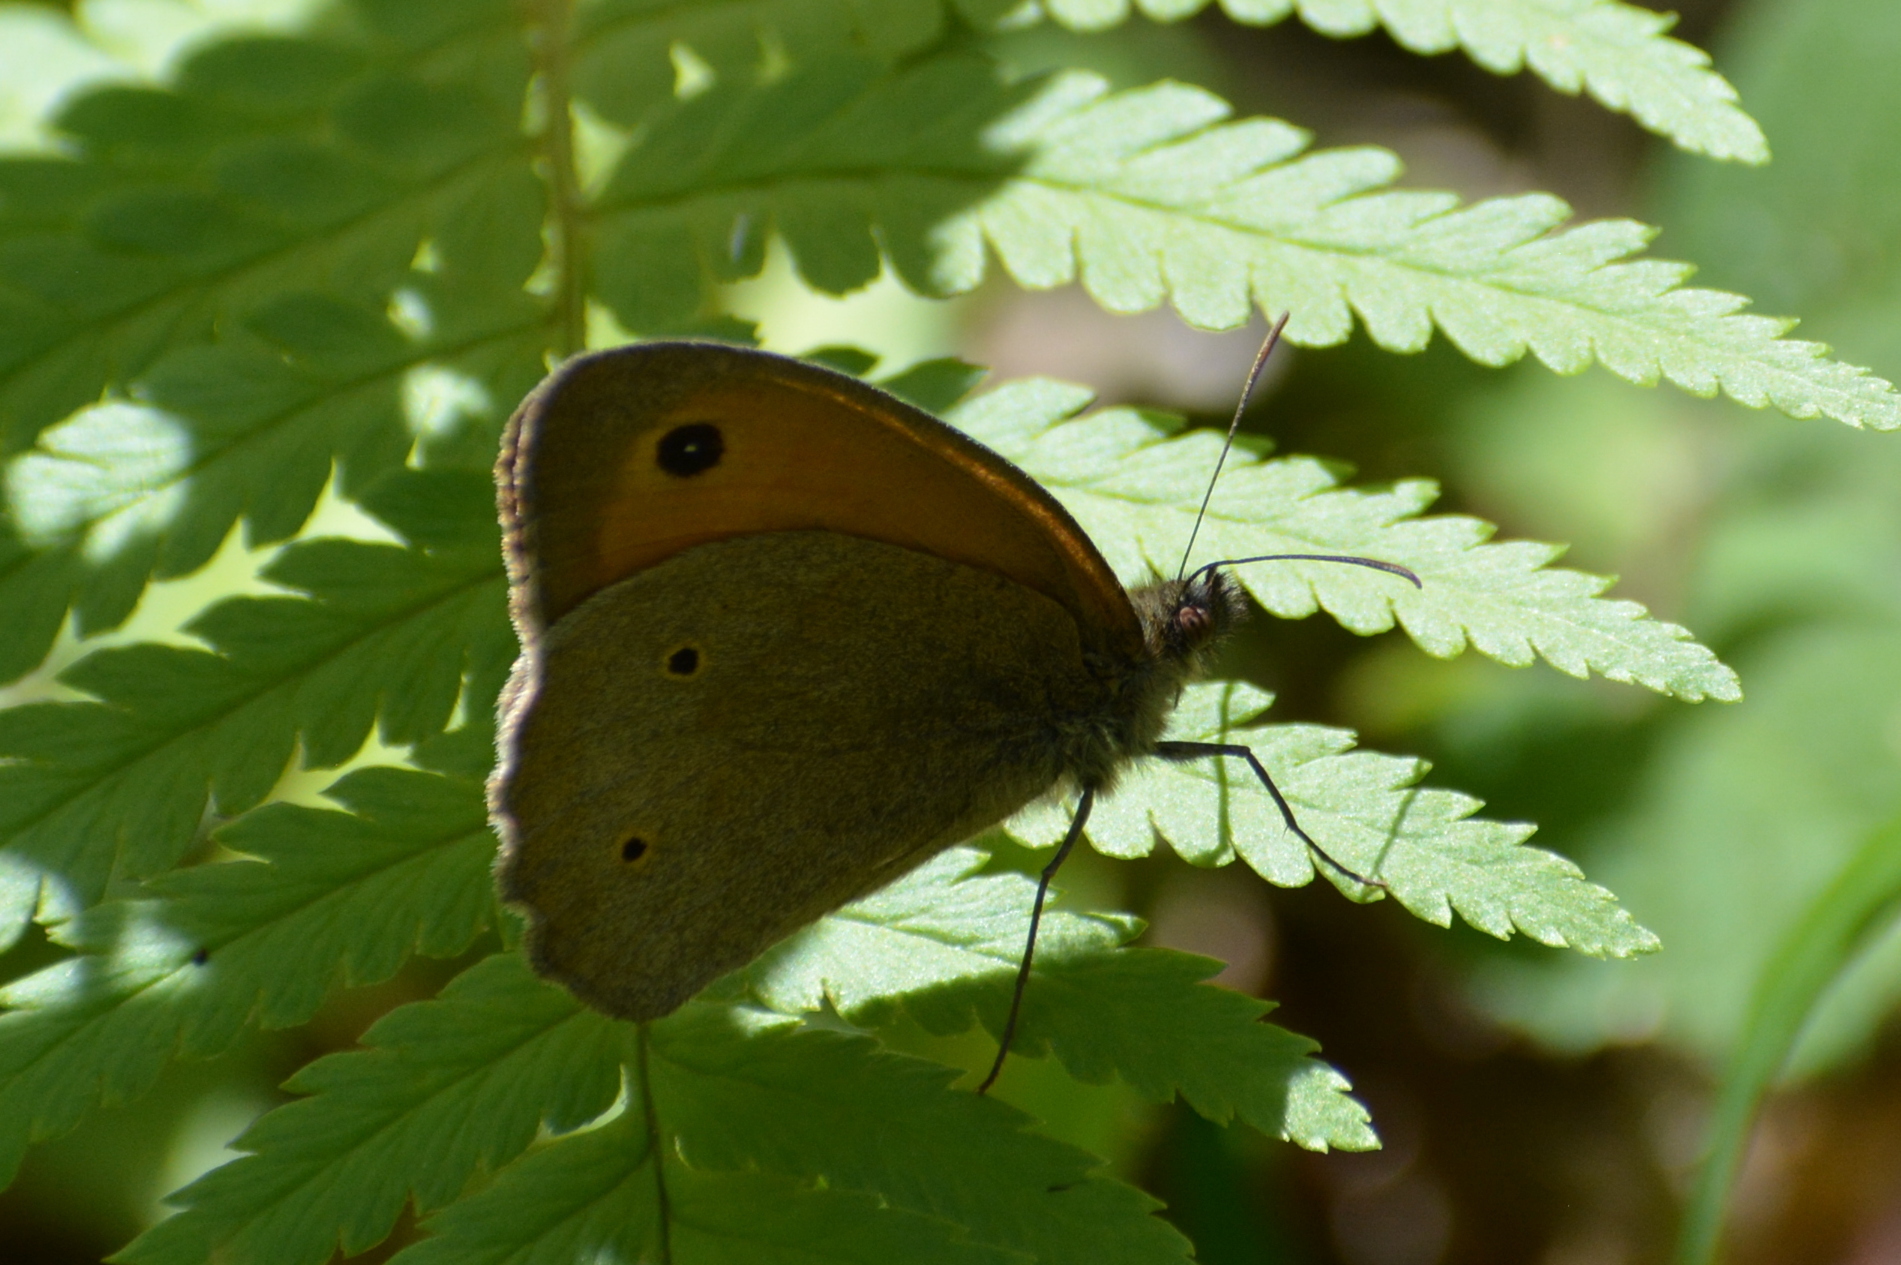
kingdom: Animalia
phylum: Arthropoda
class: Insecta
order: Lepidoptera
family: Nymphalidae
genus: Maniola
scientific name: Maniola jurtina
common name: Meadow brown
